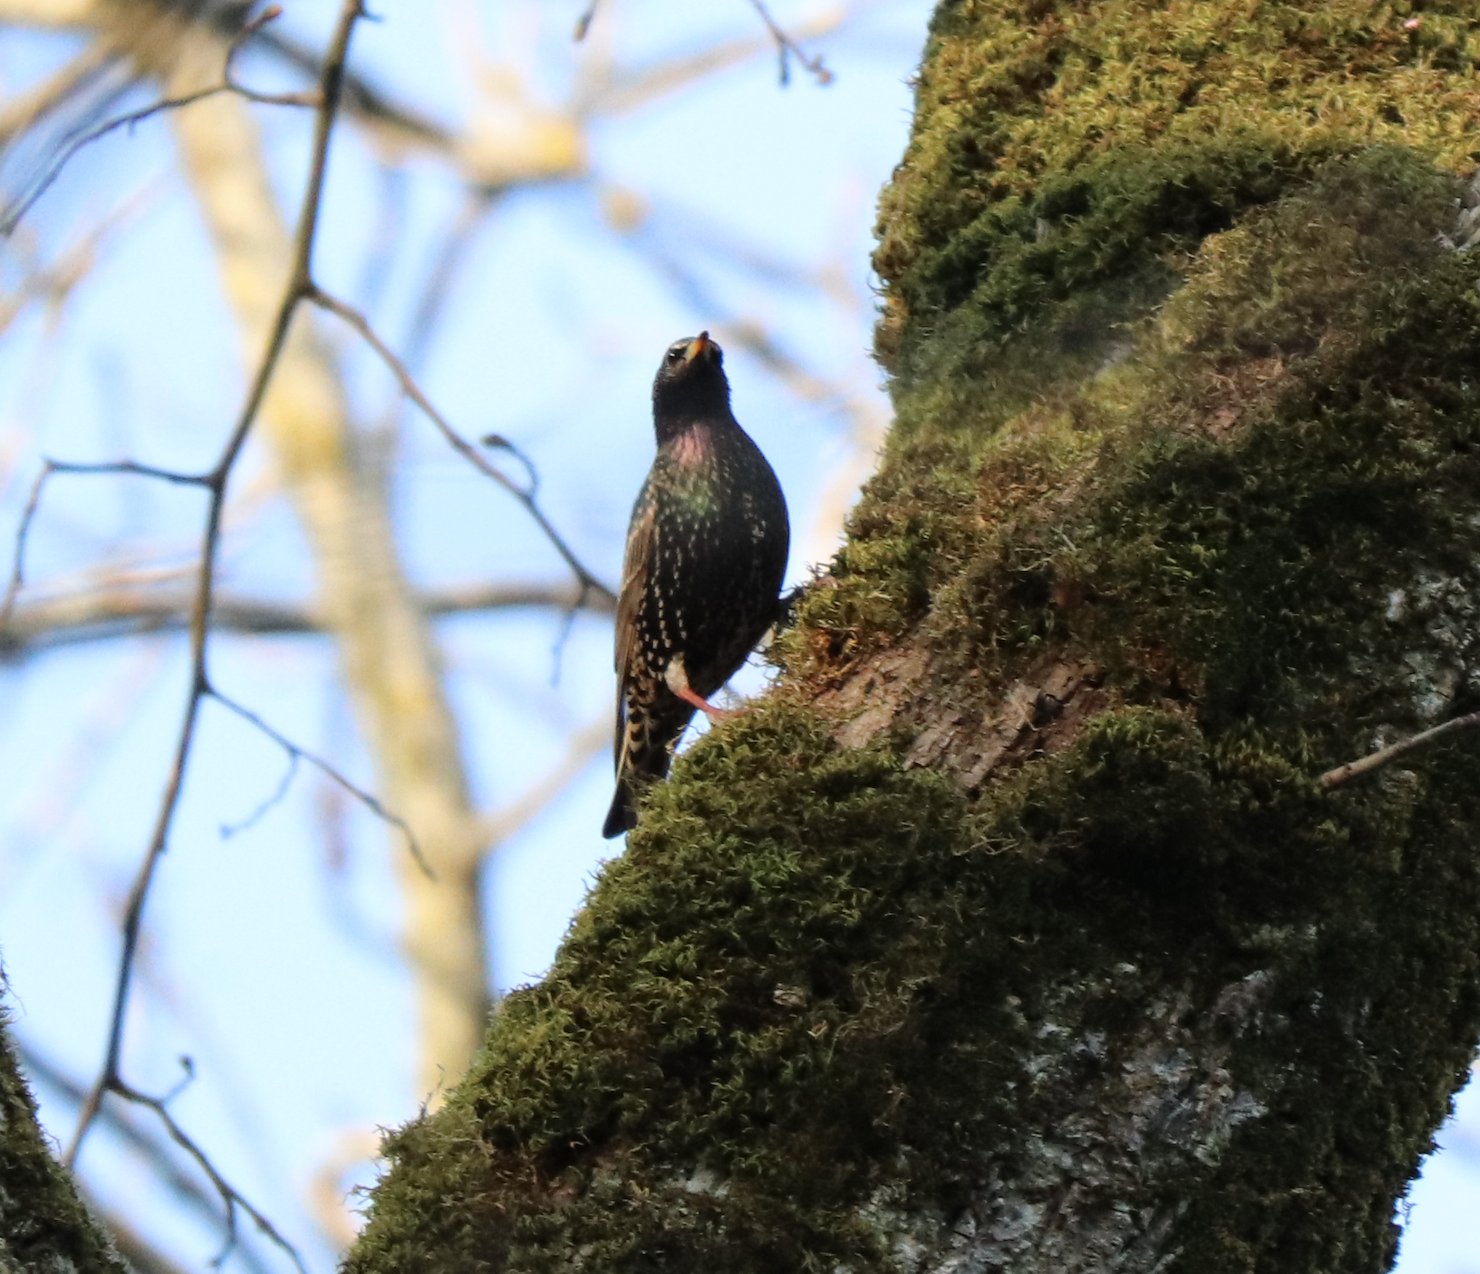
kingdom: Animalia
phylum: Chordata
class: Aves
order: Passeriformes
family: Sturnidae
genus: Sturnus
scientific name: Sturnus vulgaris
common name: Common starling
